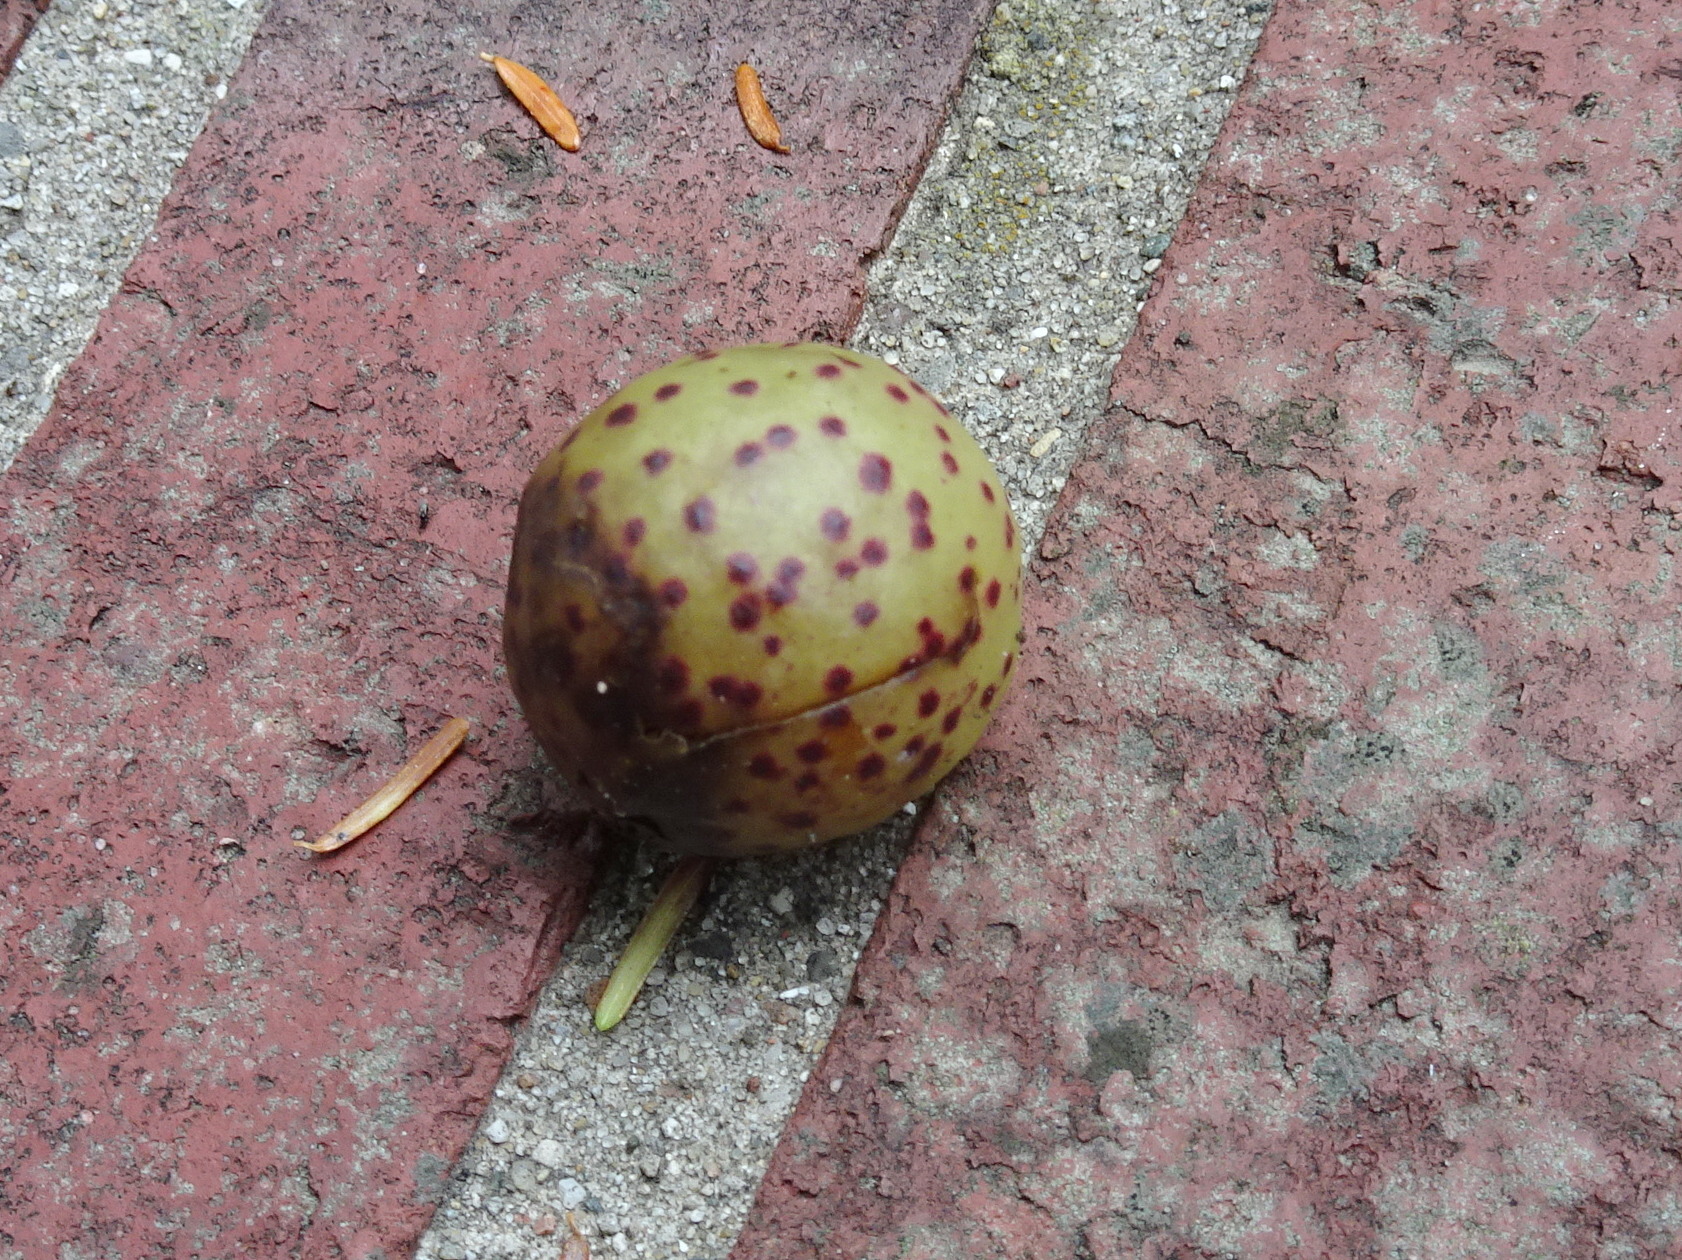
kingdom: Animalia
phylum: Arthropoda
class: Insecta
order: Hymenoptera
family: Cynipidae
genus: Amphibolips
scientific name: Amphibolips
